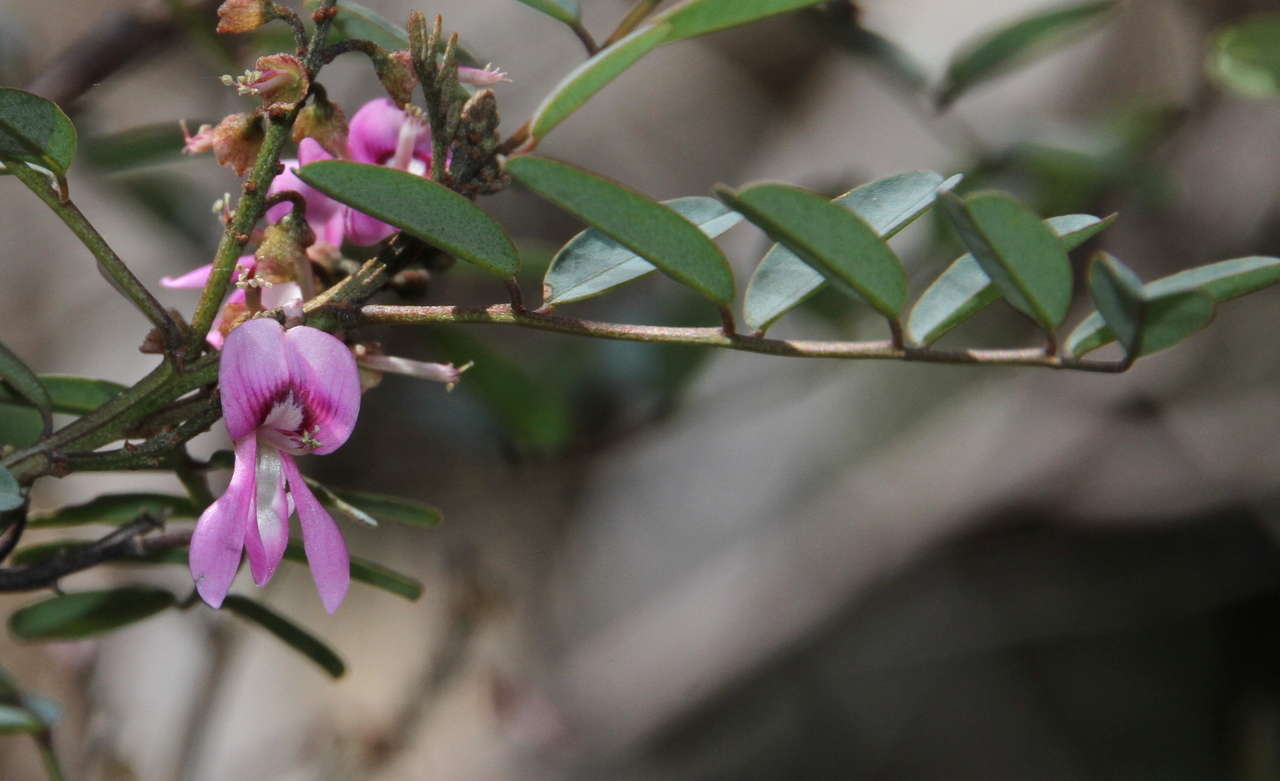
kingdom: Plantae
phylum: Tracheophyta
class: Magnoliopsida
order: Fabales
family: Fabaceae
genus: Indigofera
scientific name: Indigofera australis
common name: Australian indigo
